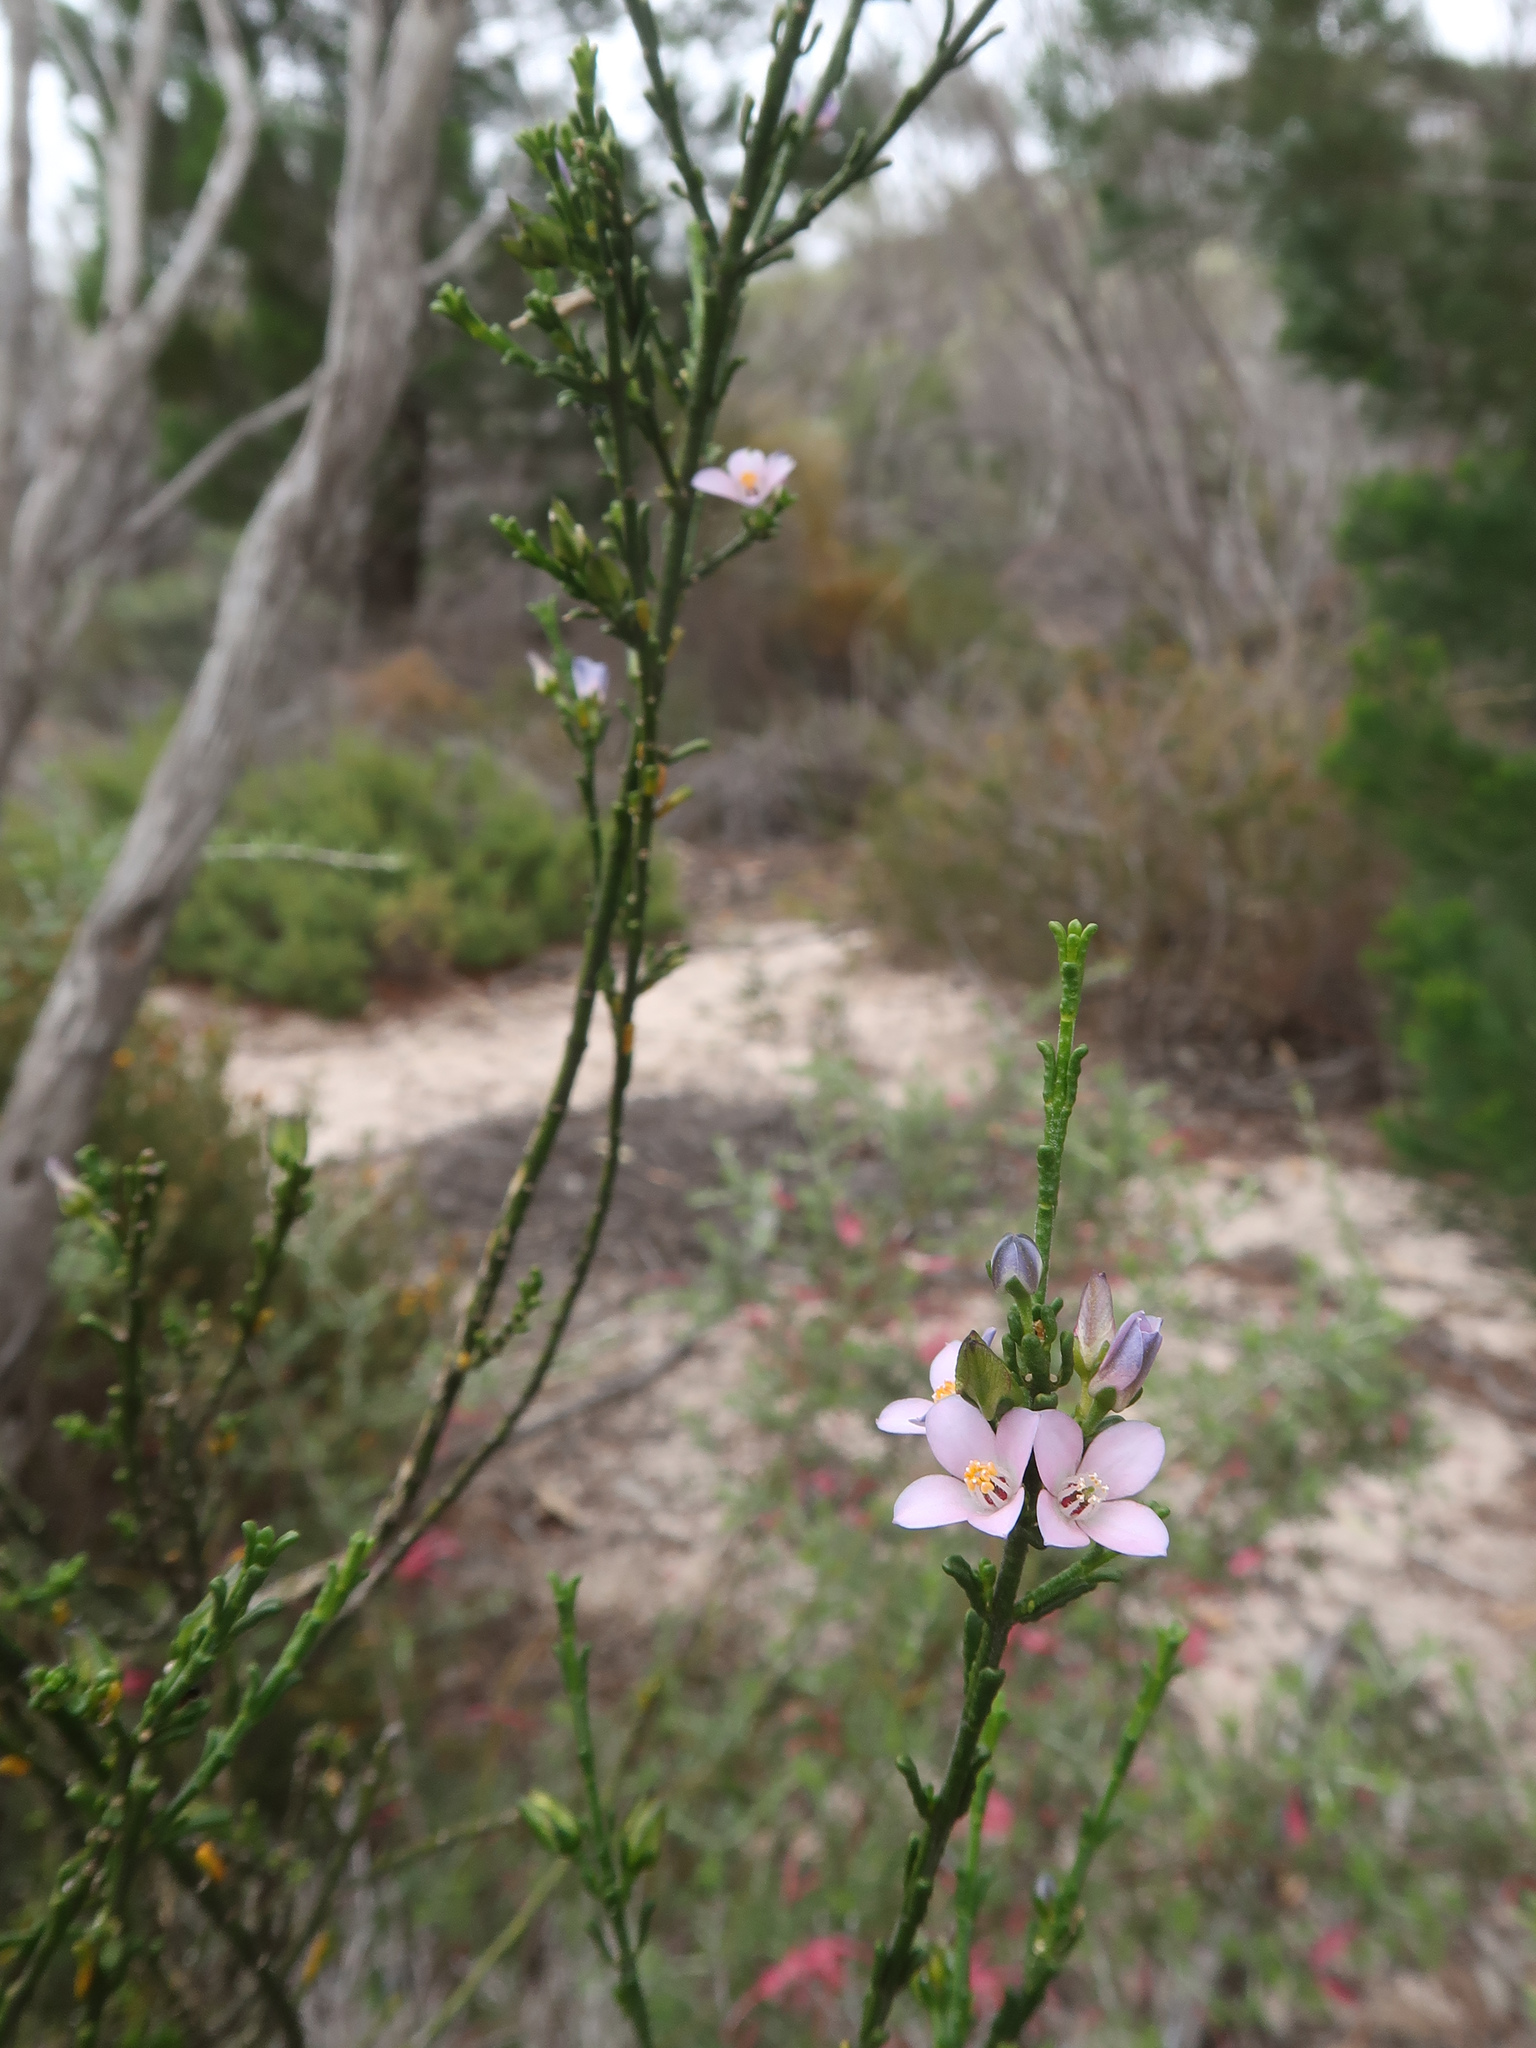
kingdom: Plantae
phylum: Tracheophyta
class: Magnoliopsida
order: Sapindales
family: Rutaceae
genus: Cyanothamnus
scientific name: Cyanothamnus coerulescens
